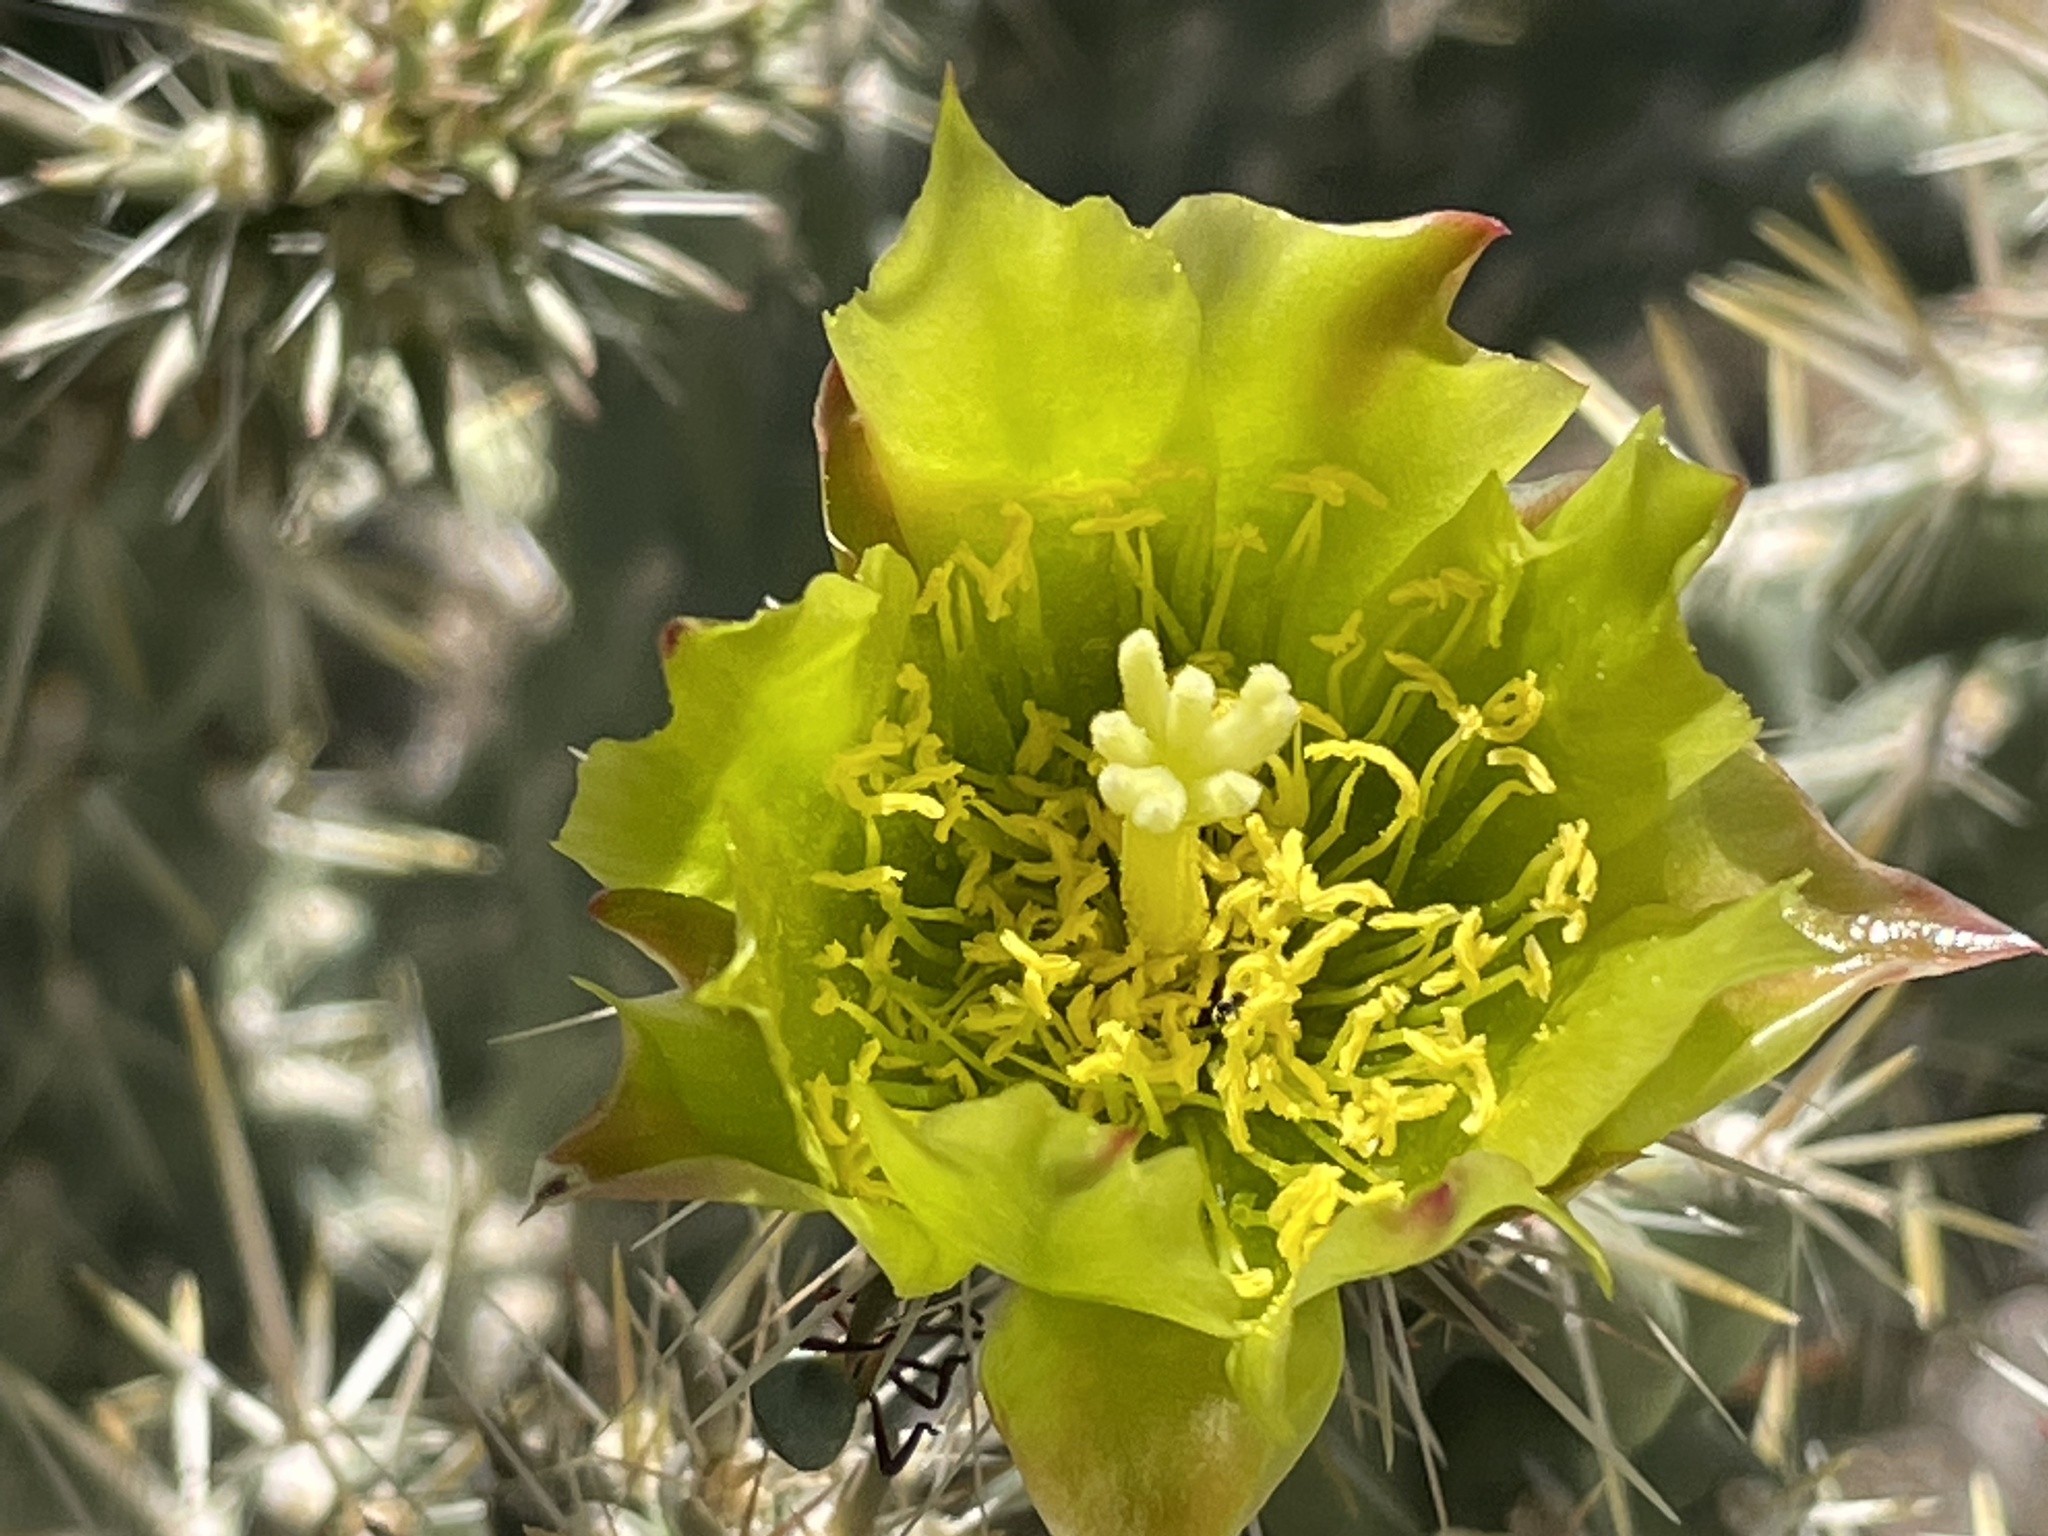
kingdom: Plantae
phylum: Tracheophyta
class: Magnoliopsida
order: Caryophyllales
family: Cactaceae
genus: Cylindropuntia
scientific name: Cylindropuntia bernardina
